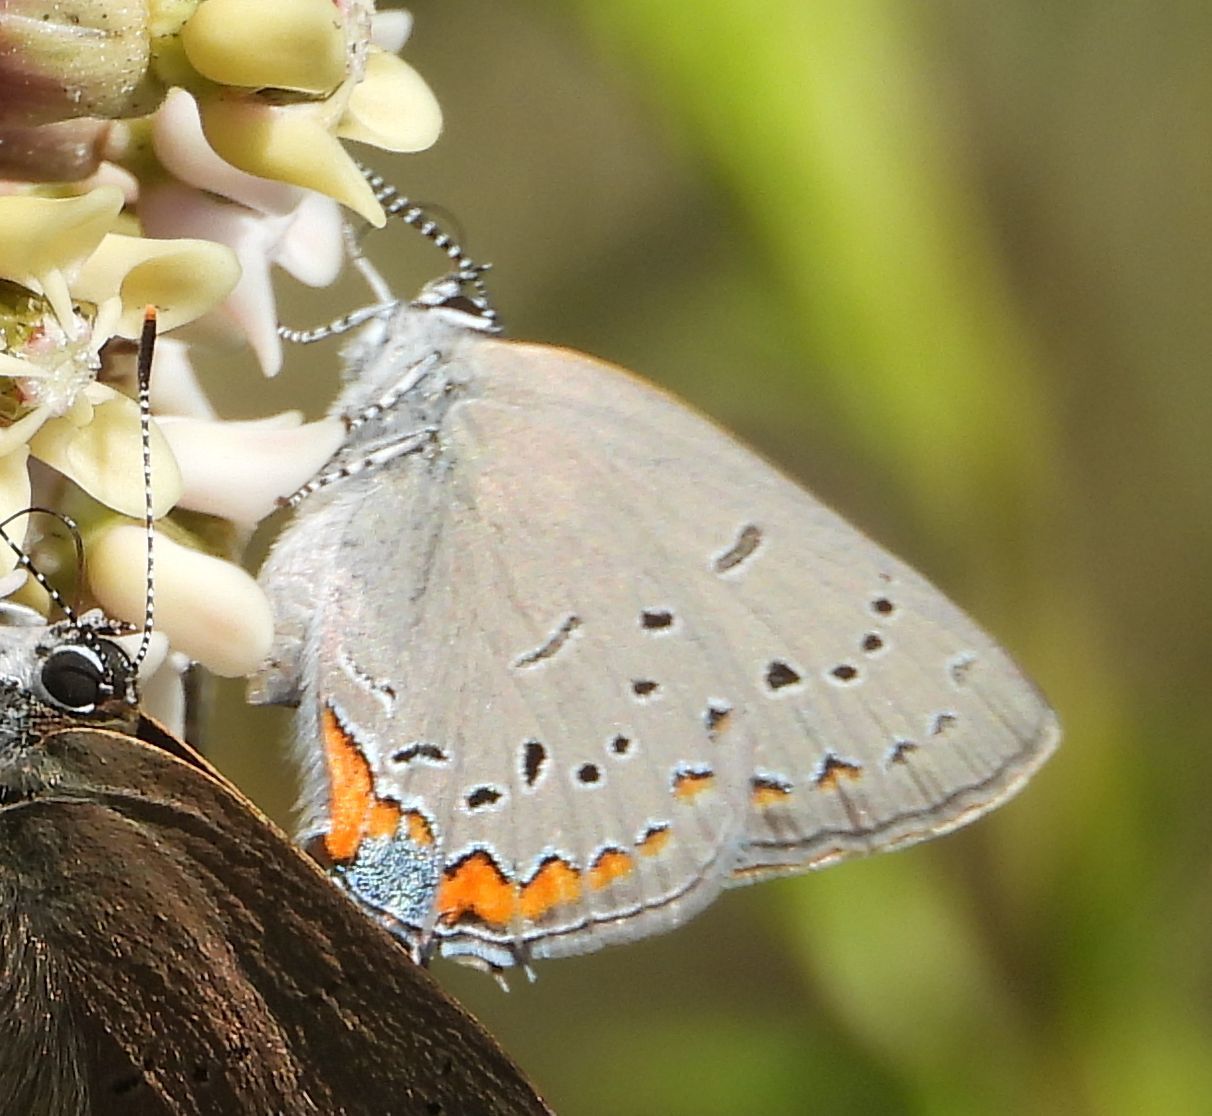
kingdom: Animalia
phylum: Arthropoda
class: Insecta
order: Lepidoptera
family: Lycaenidae
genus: Strymon
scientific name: Strymon acadica
